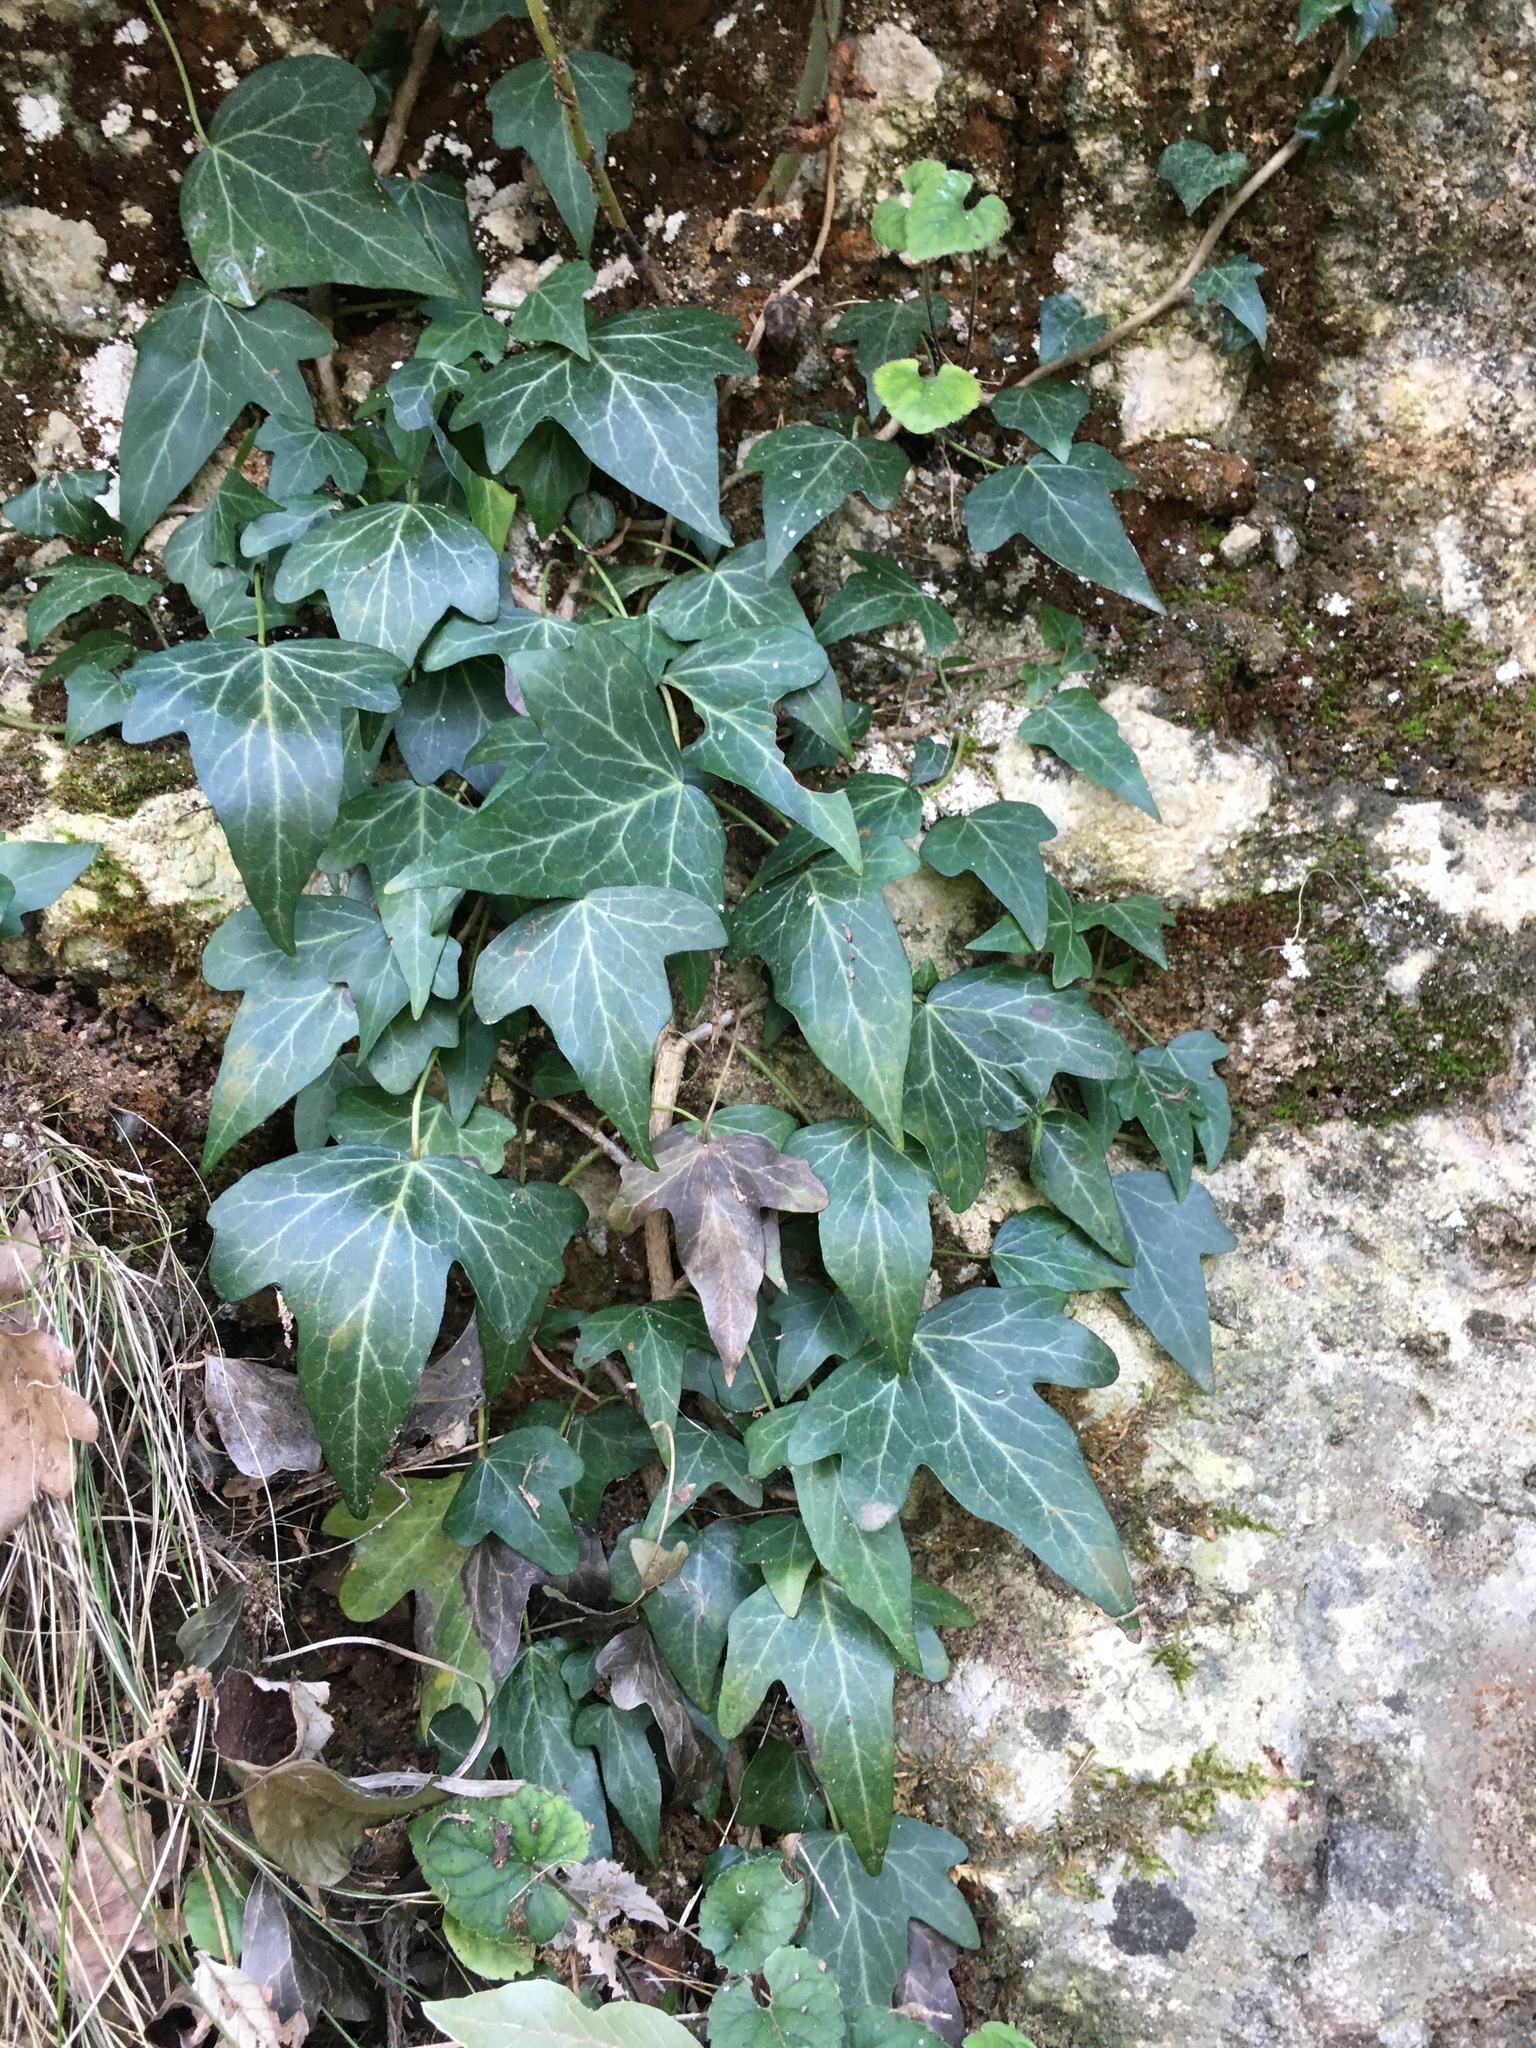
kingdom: Plantae
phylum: Tracheophyta
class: Magnoliopsida
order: Apiales
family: Araliaceae
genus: Hedera
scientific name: Hedera helix
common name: Ivy
